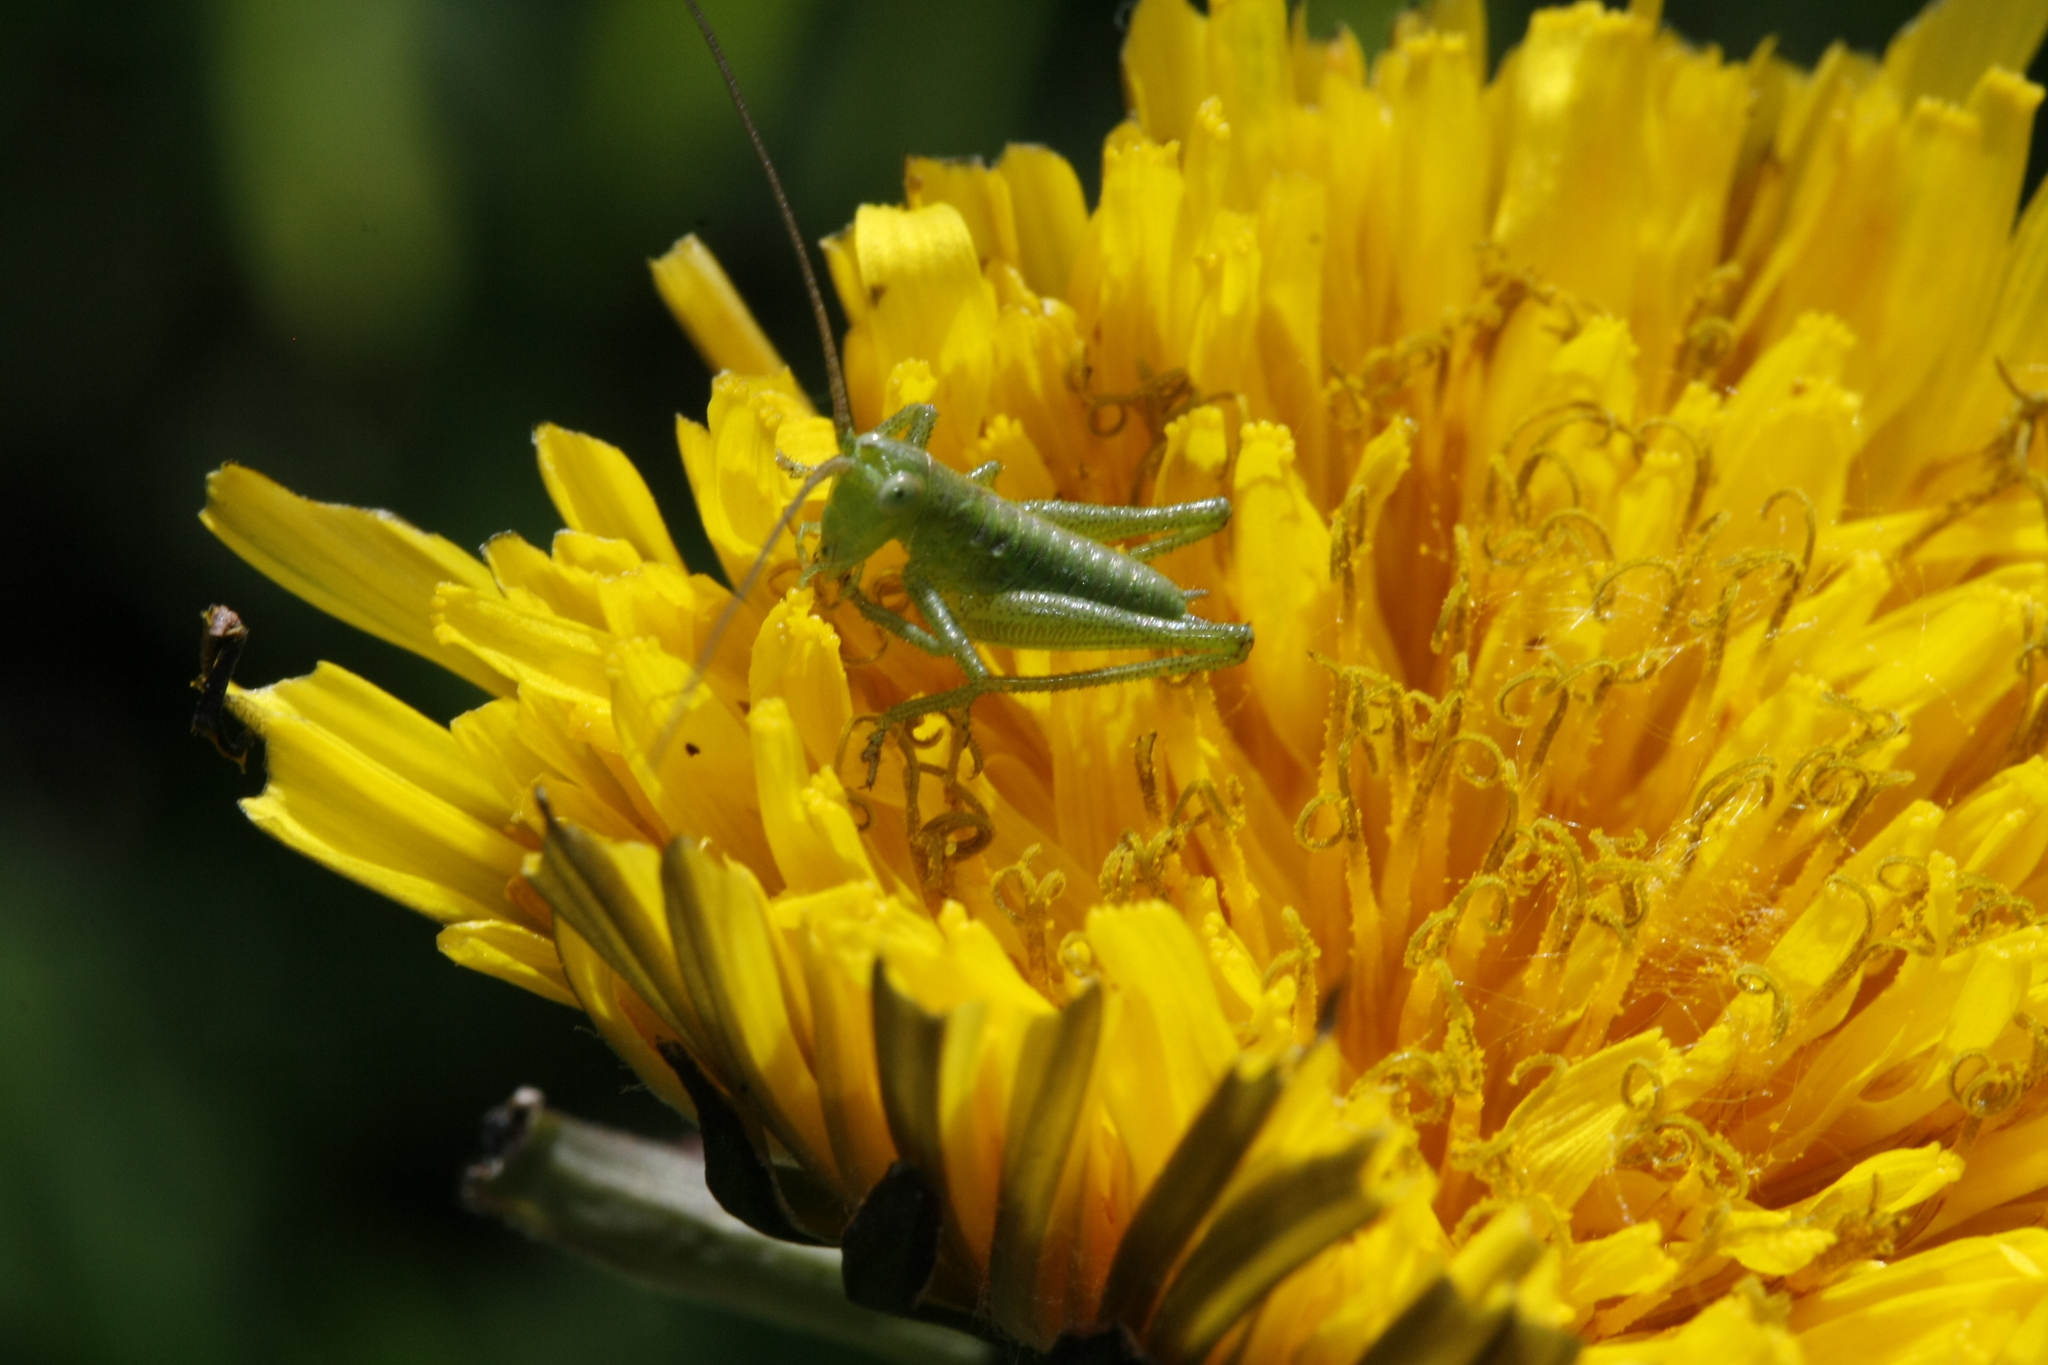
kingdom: Animalia
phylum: Arthropoda
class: Insecta
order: Orthoptera
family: Tettigoniidae
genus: Tettigonia
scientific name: Tettigonia viridissima
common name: Great green bush-cricket
